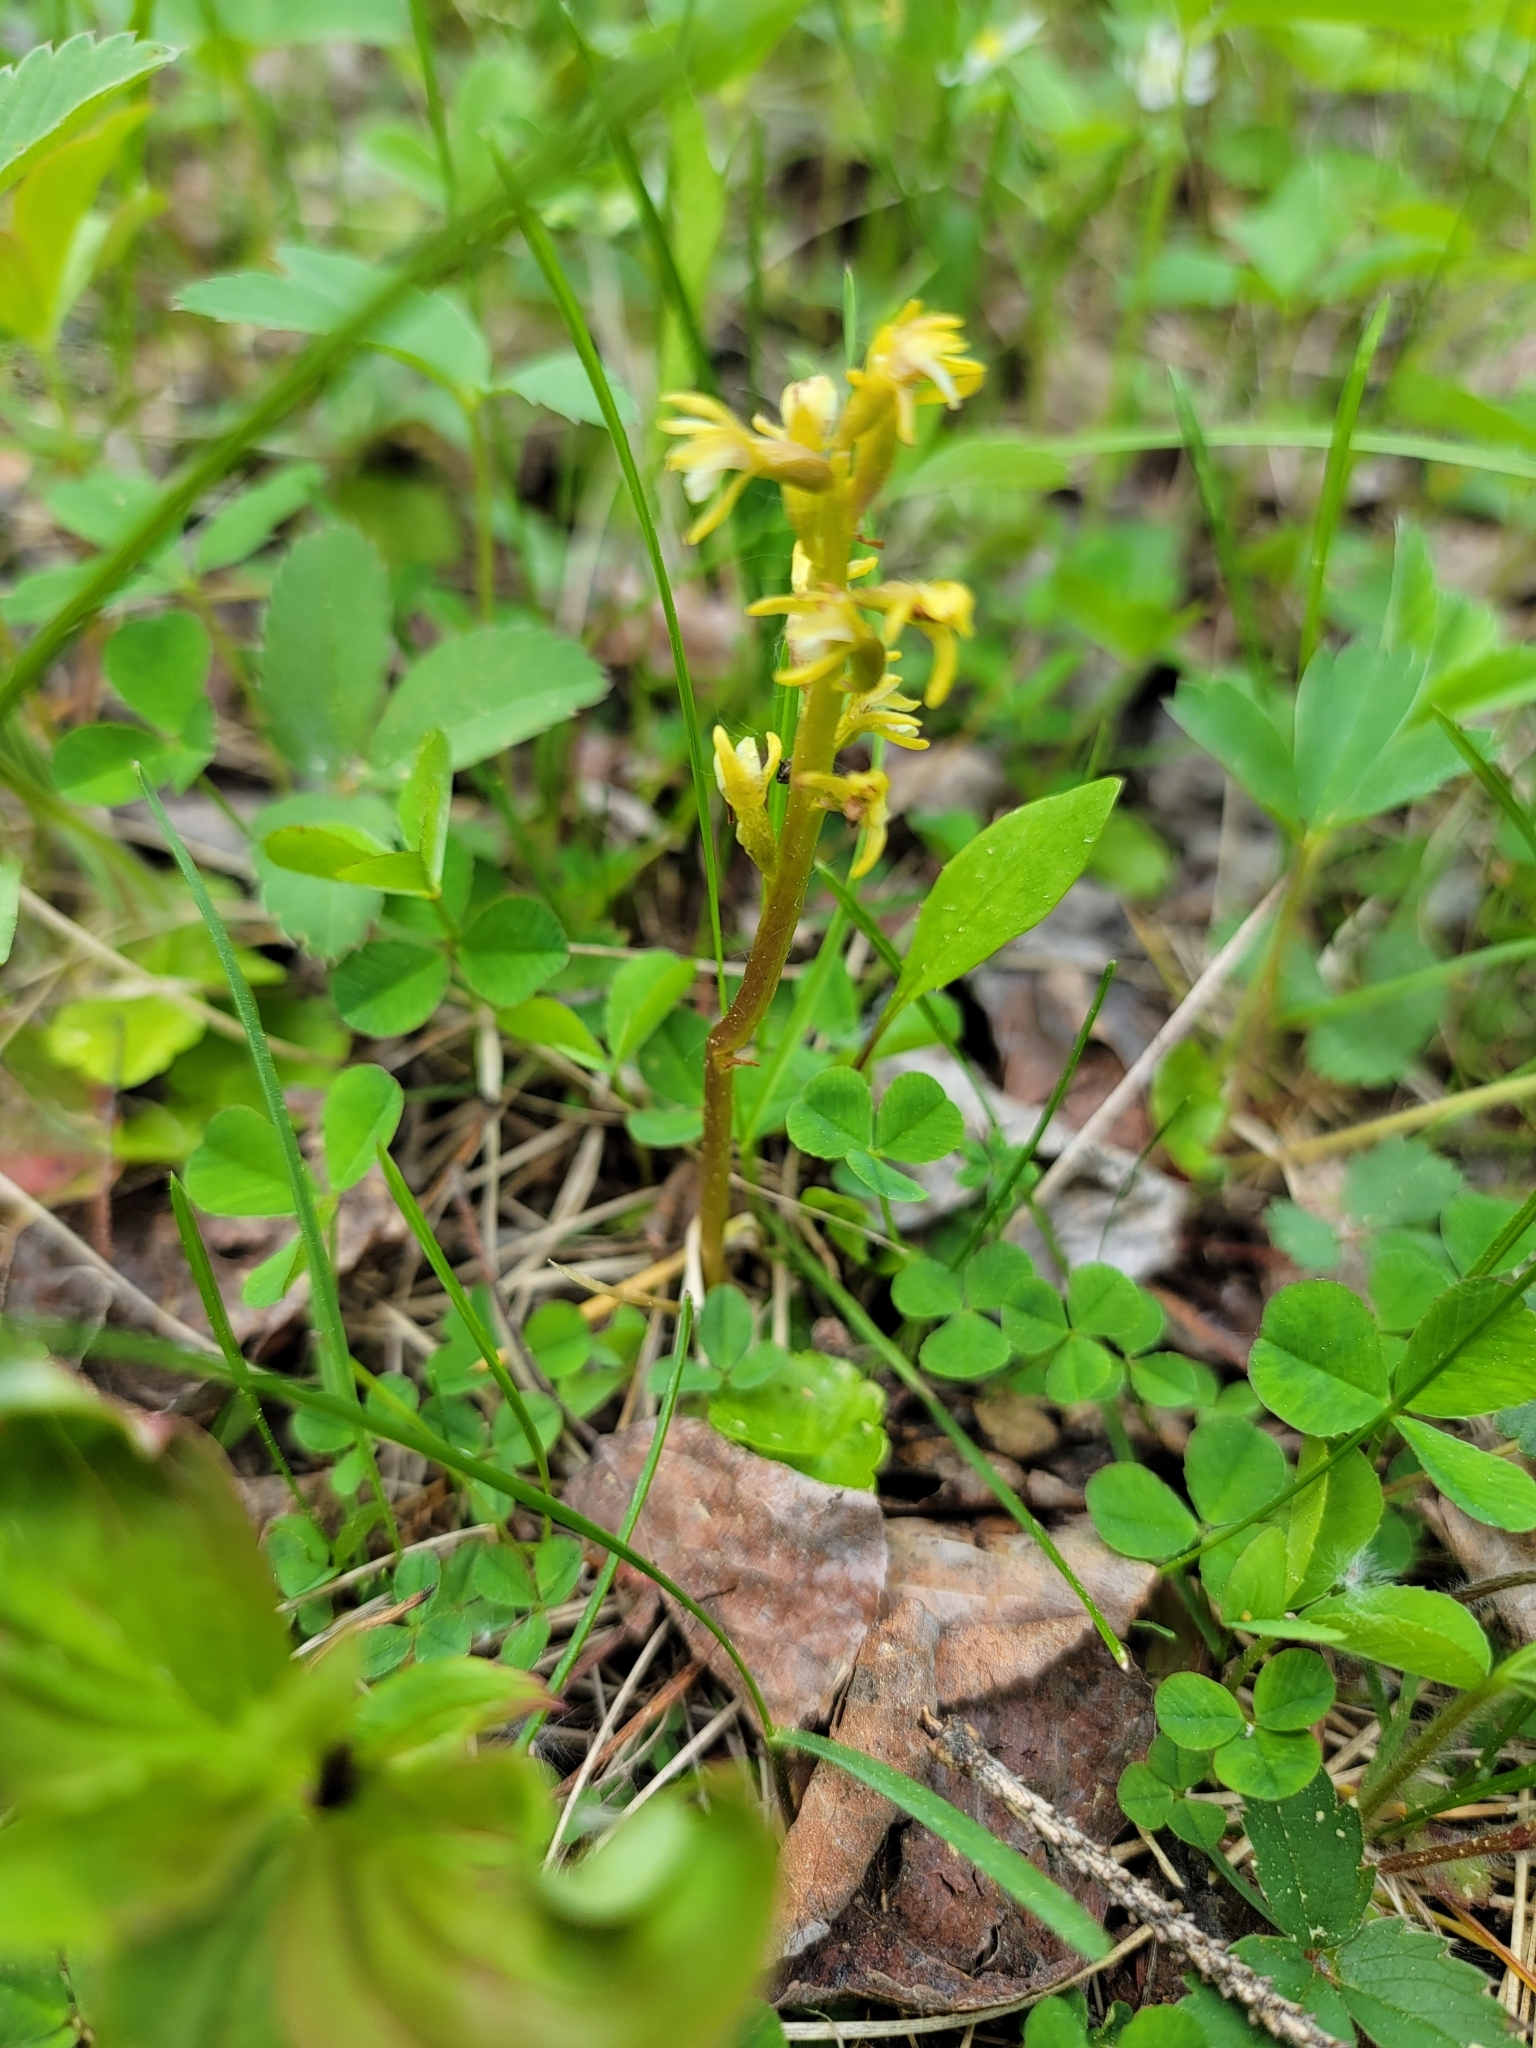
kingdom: Plantae
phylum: Tracheophyta
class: Liliopsida
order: Asparagales
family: Orchidaceae
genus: Corallorhiza
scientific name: Corallorhiza trifida
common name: Yellow coralroot
